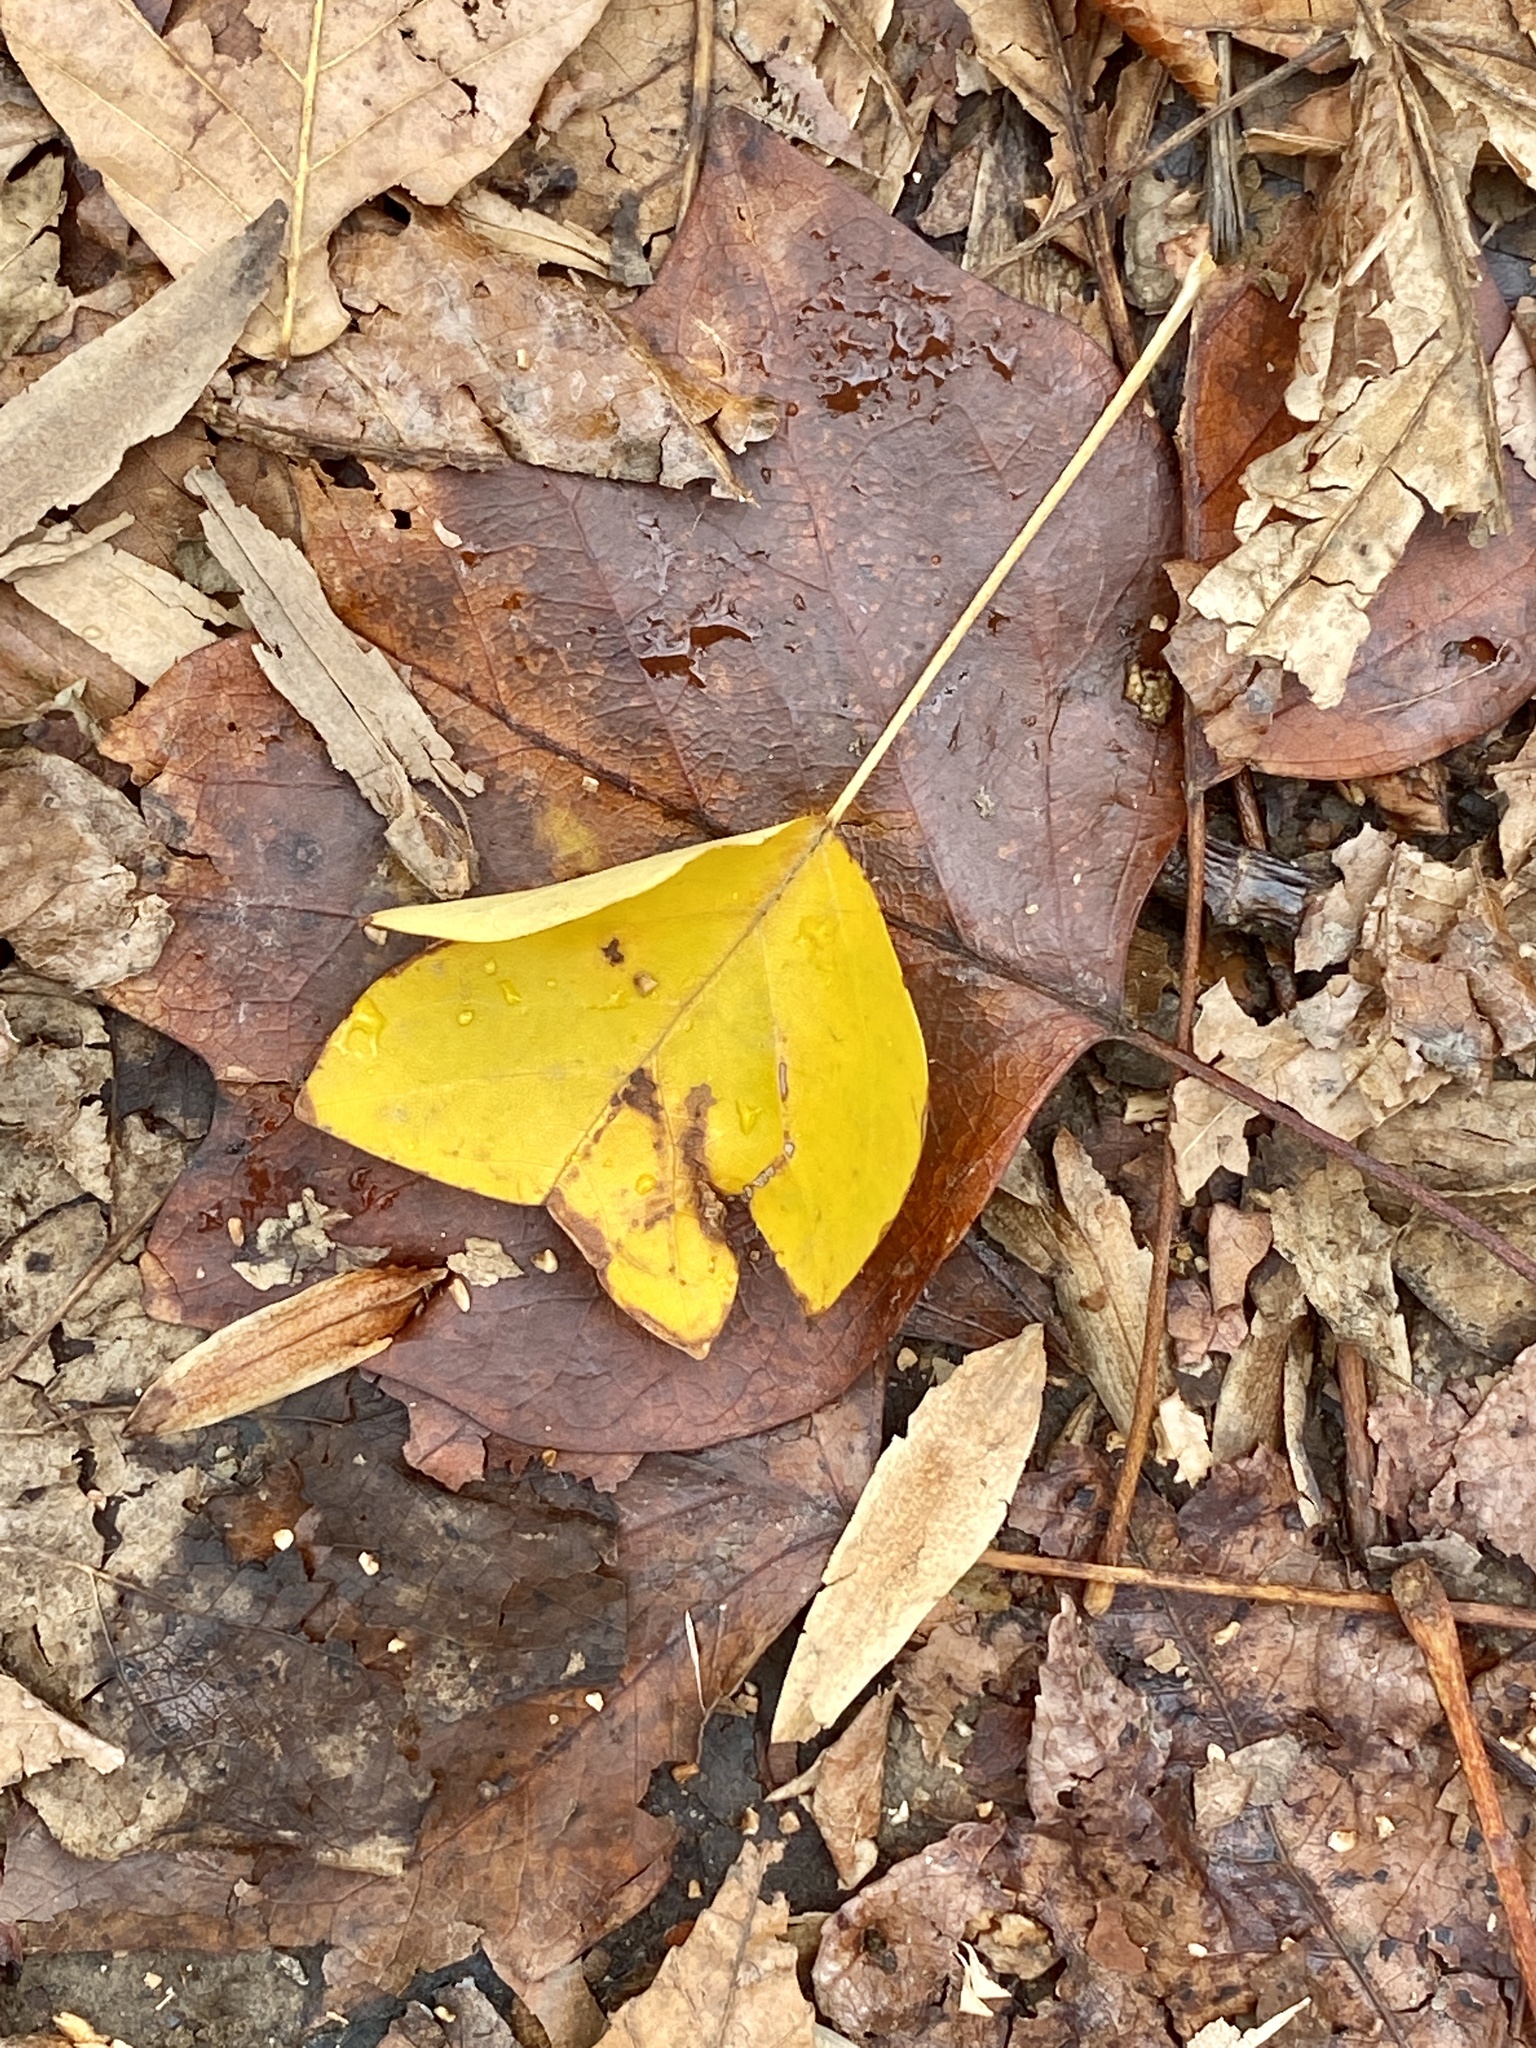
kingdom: Plantae
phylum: Tracheophyta
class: Magnoliopsida
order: Magnoliales
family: Magnoliaceae
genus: Liriodendron
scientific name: Liriodendron tulipifera
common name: Tulip tree
